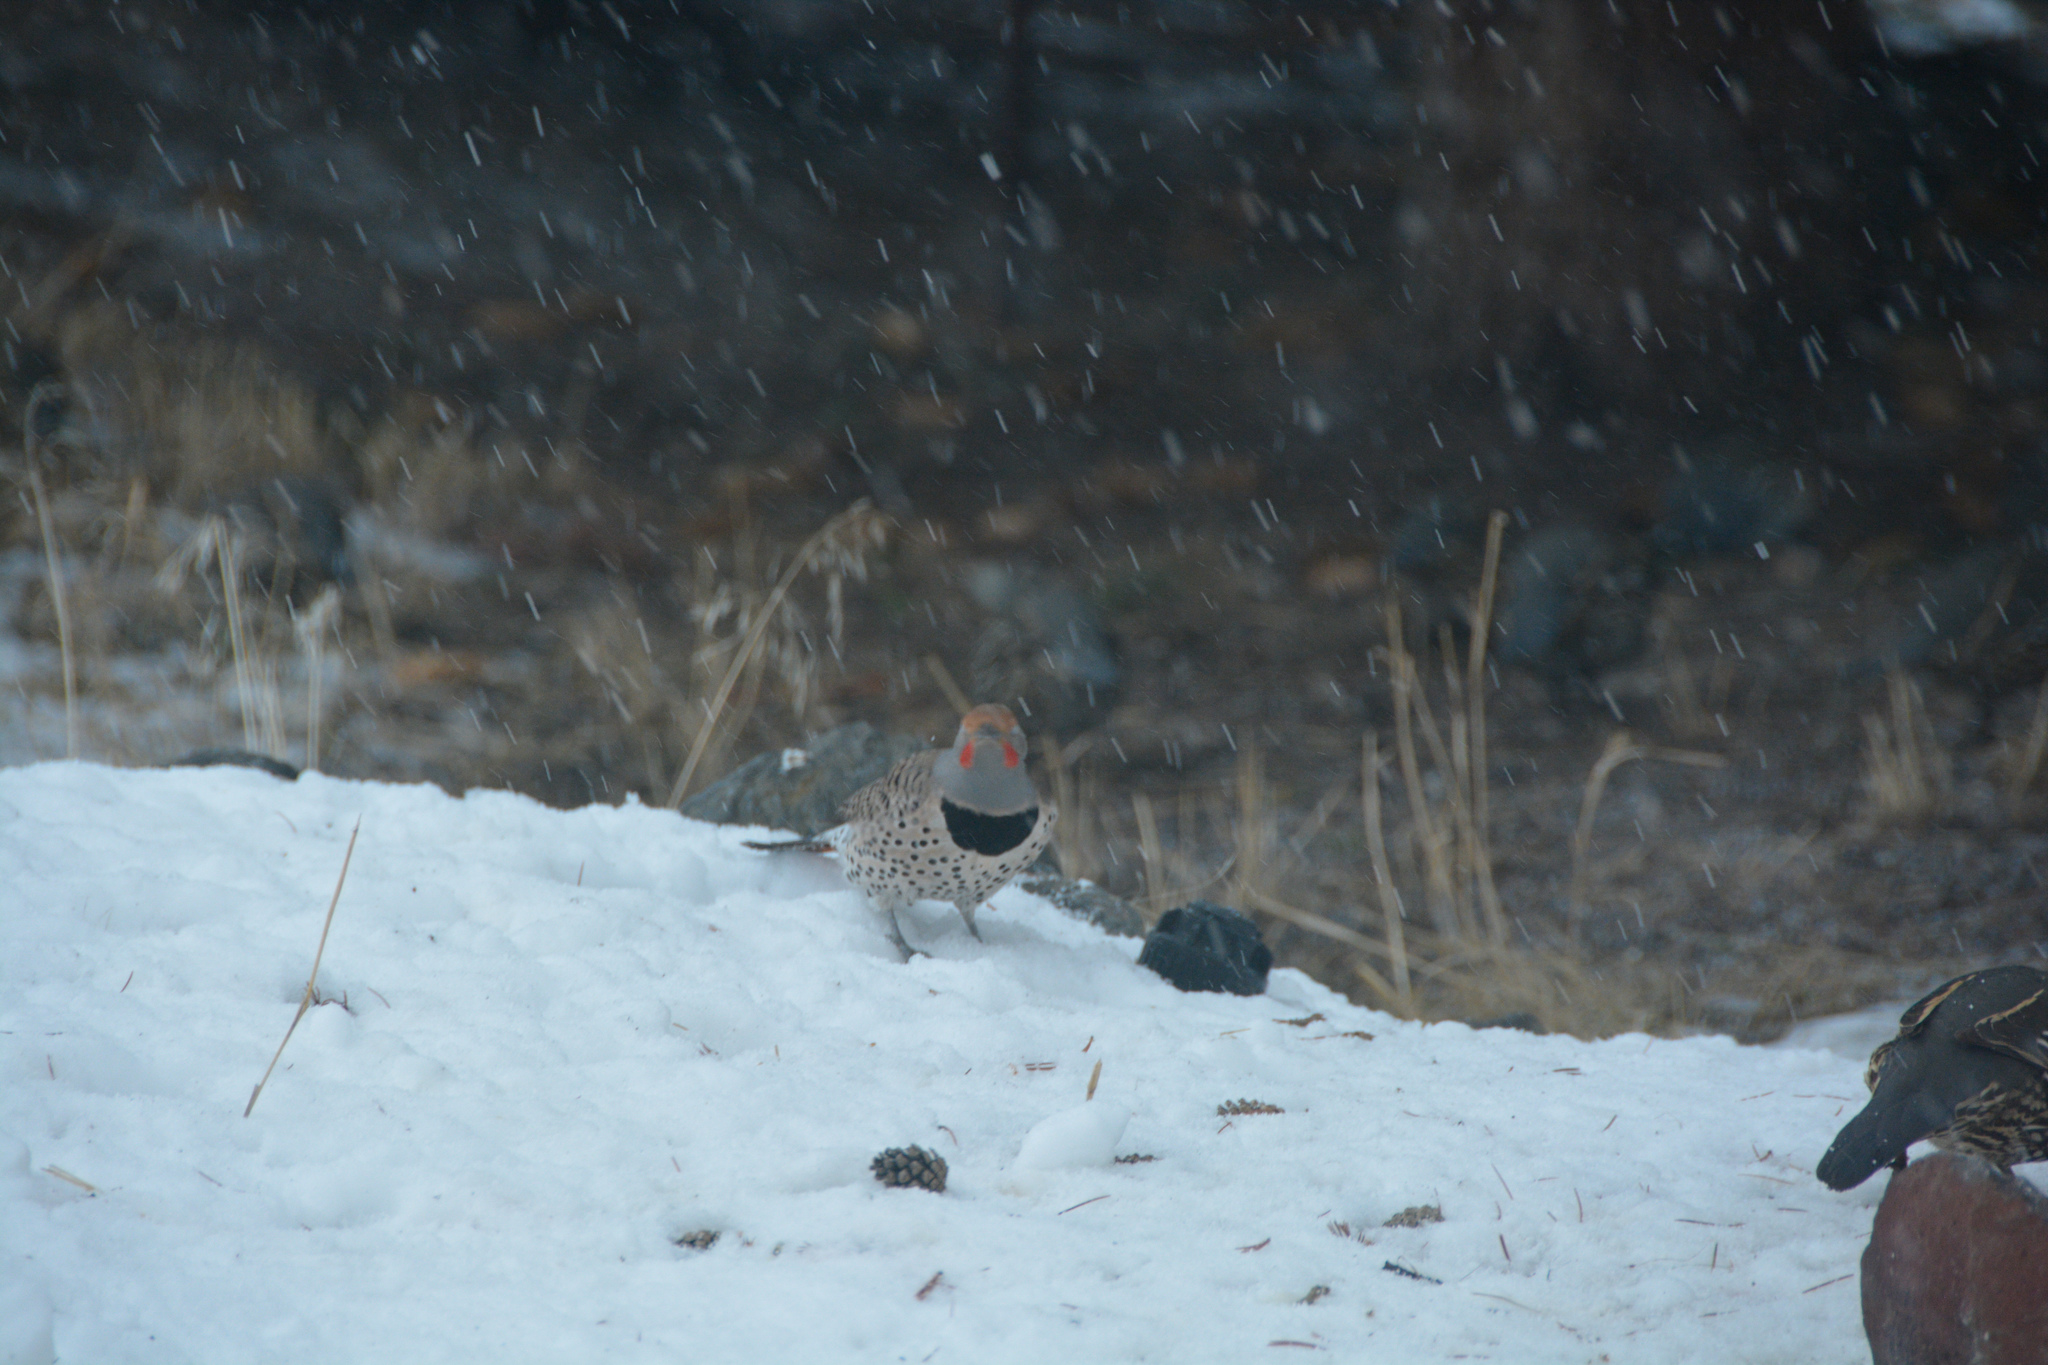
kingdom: Animalia
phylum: Chordata
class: Aves
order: Piciformes
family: Picidae
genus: Colaptes
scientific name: Colaptes auratus
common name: Northern flicker
